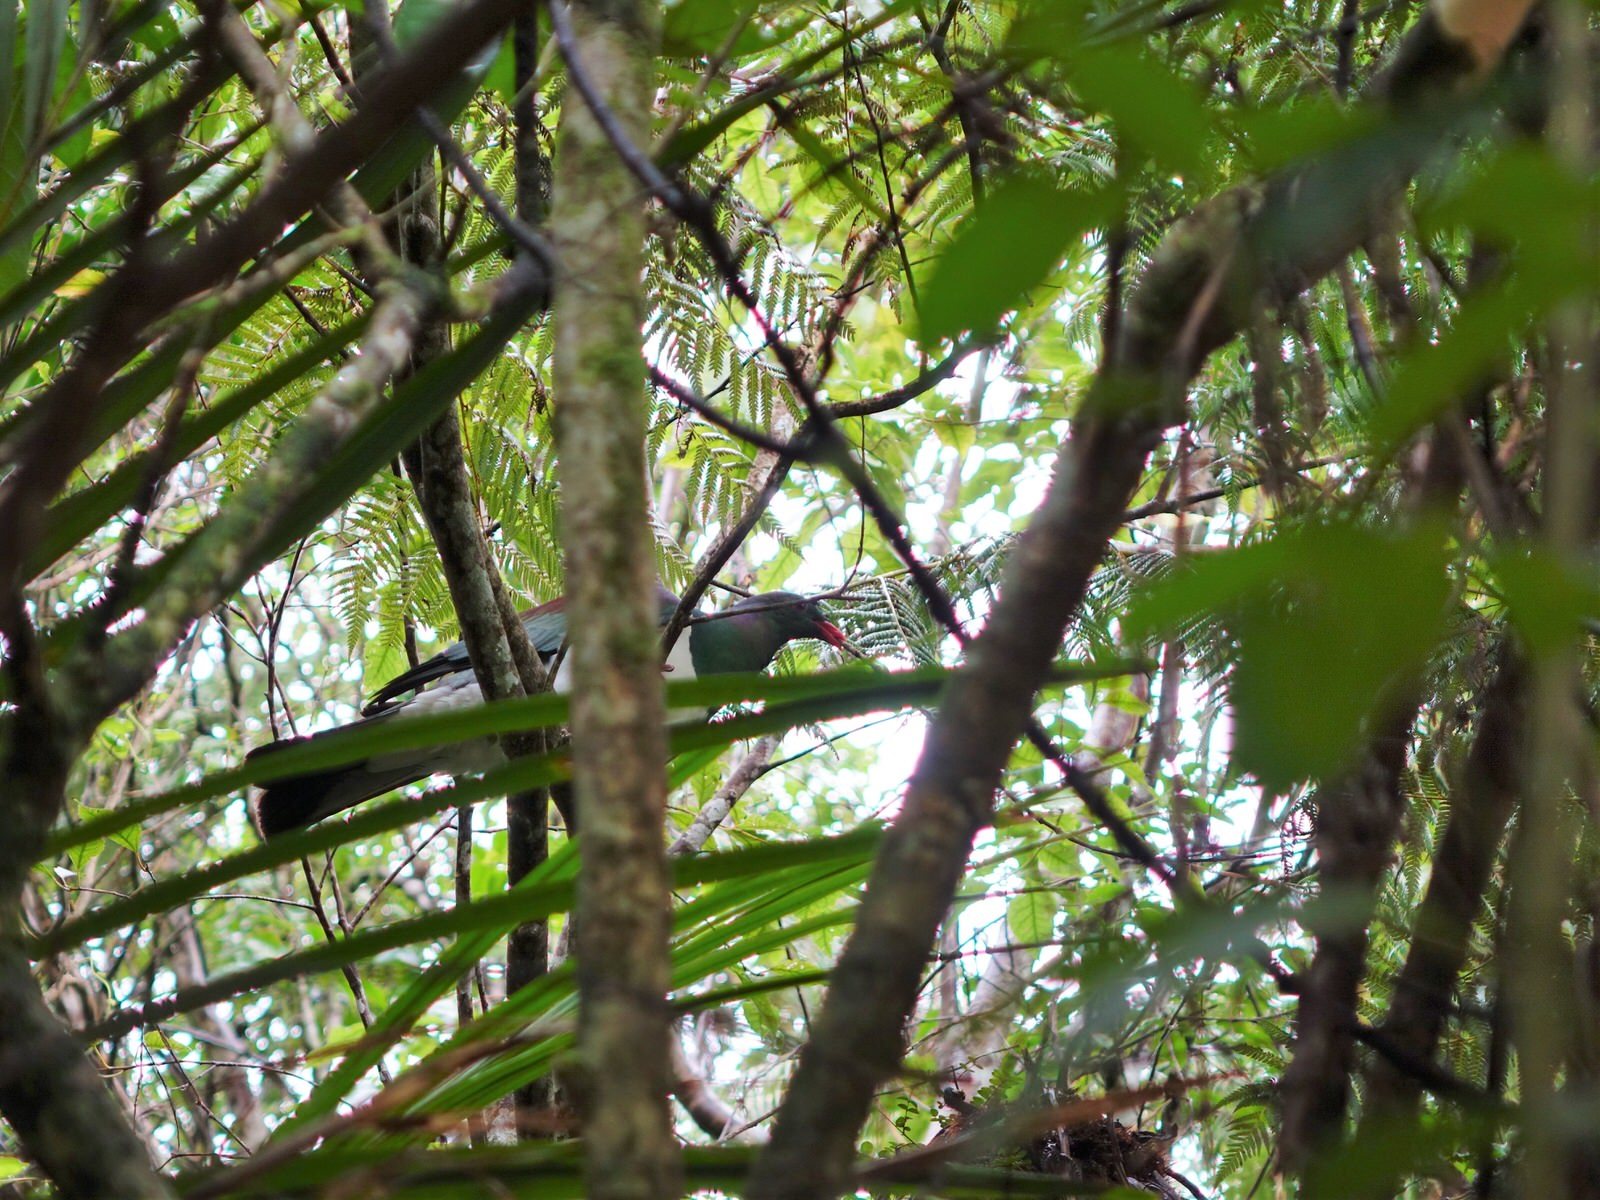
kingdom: Animalia
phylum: Chordata
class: Aves
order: Columbiformes
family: Columbidae
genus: Hemiphaga
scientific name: Hemiphaga novaeseelandiae
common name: New zealand pigeon
